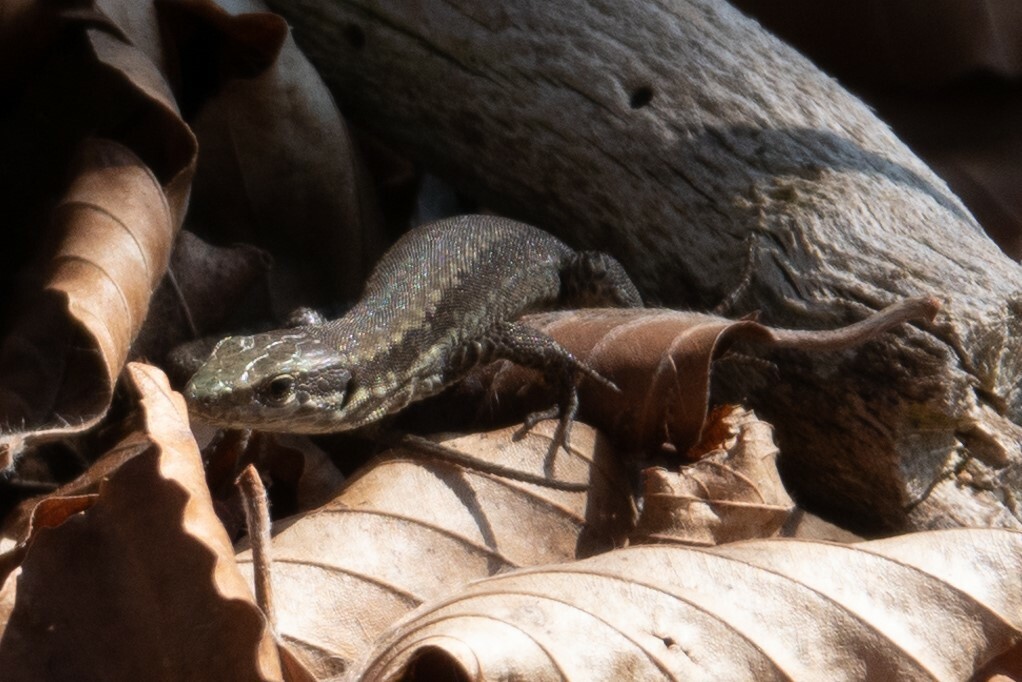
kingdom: Animalia
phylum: Chordata
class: Squamata
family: Lacertidae
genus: Podarcis
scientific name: Podarcis muralis
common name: Common wall lizard
